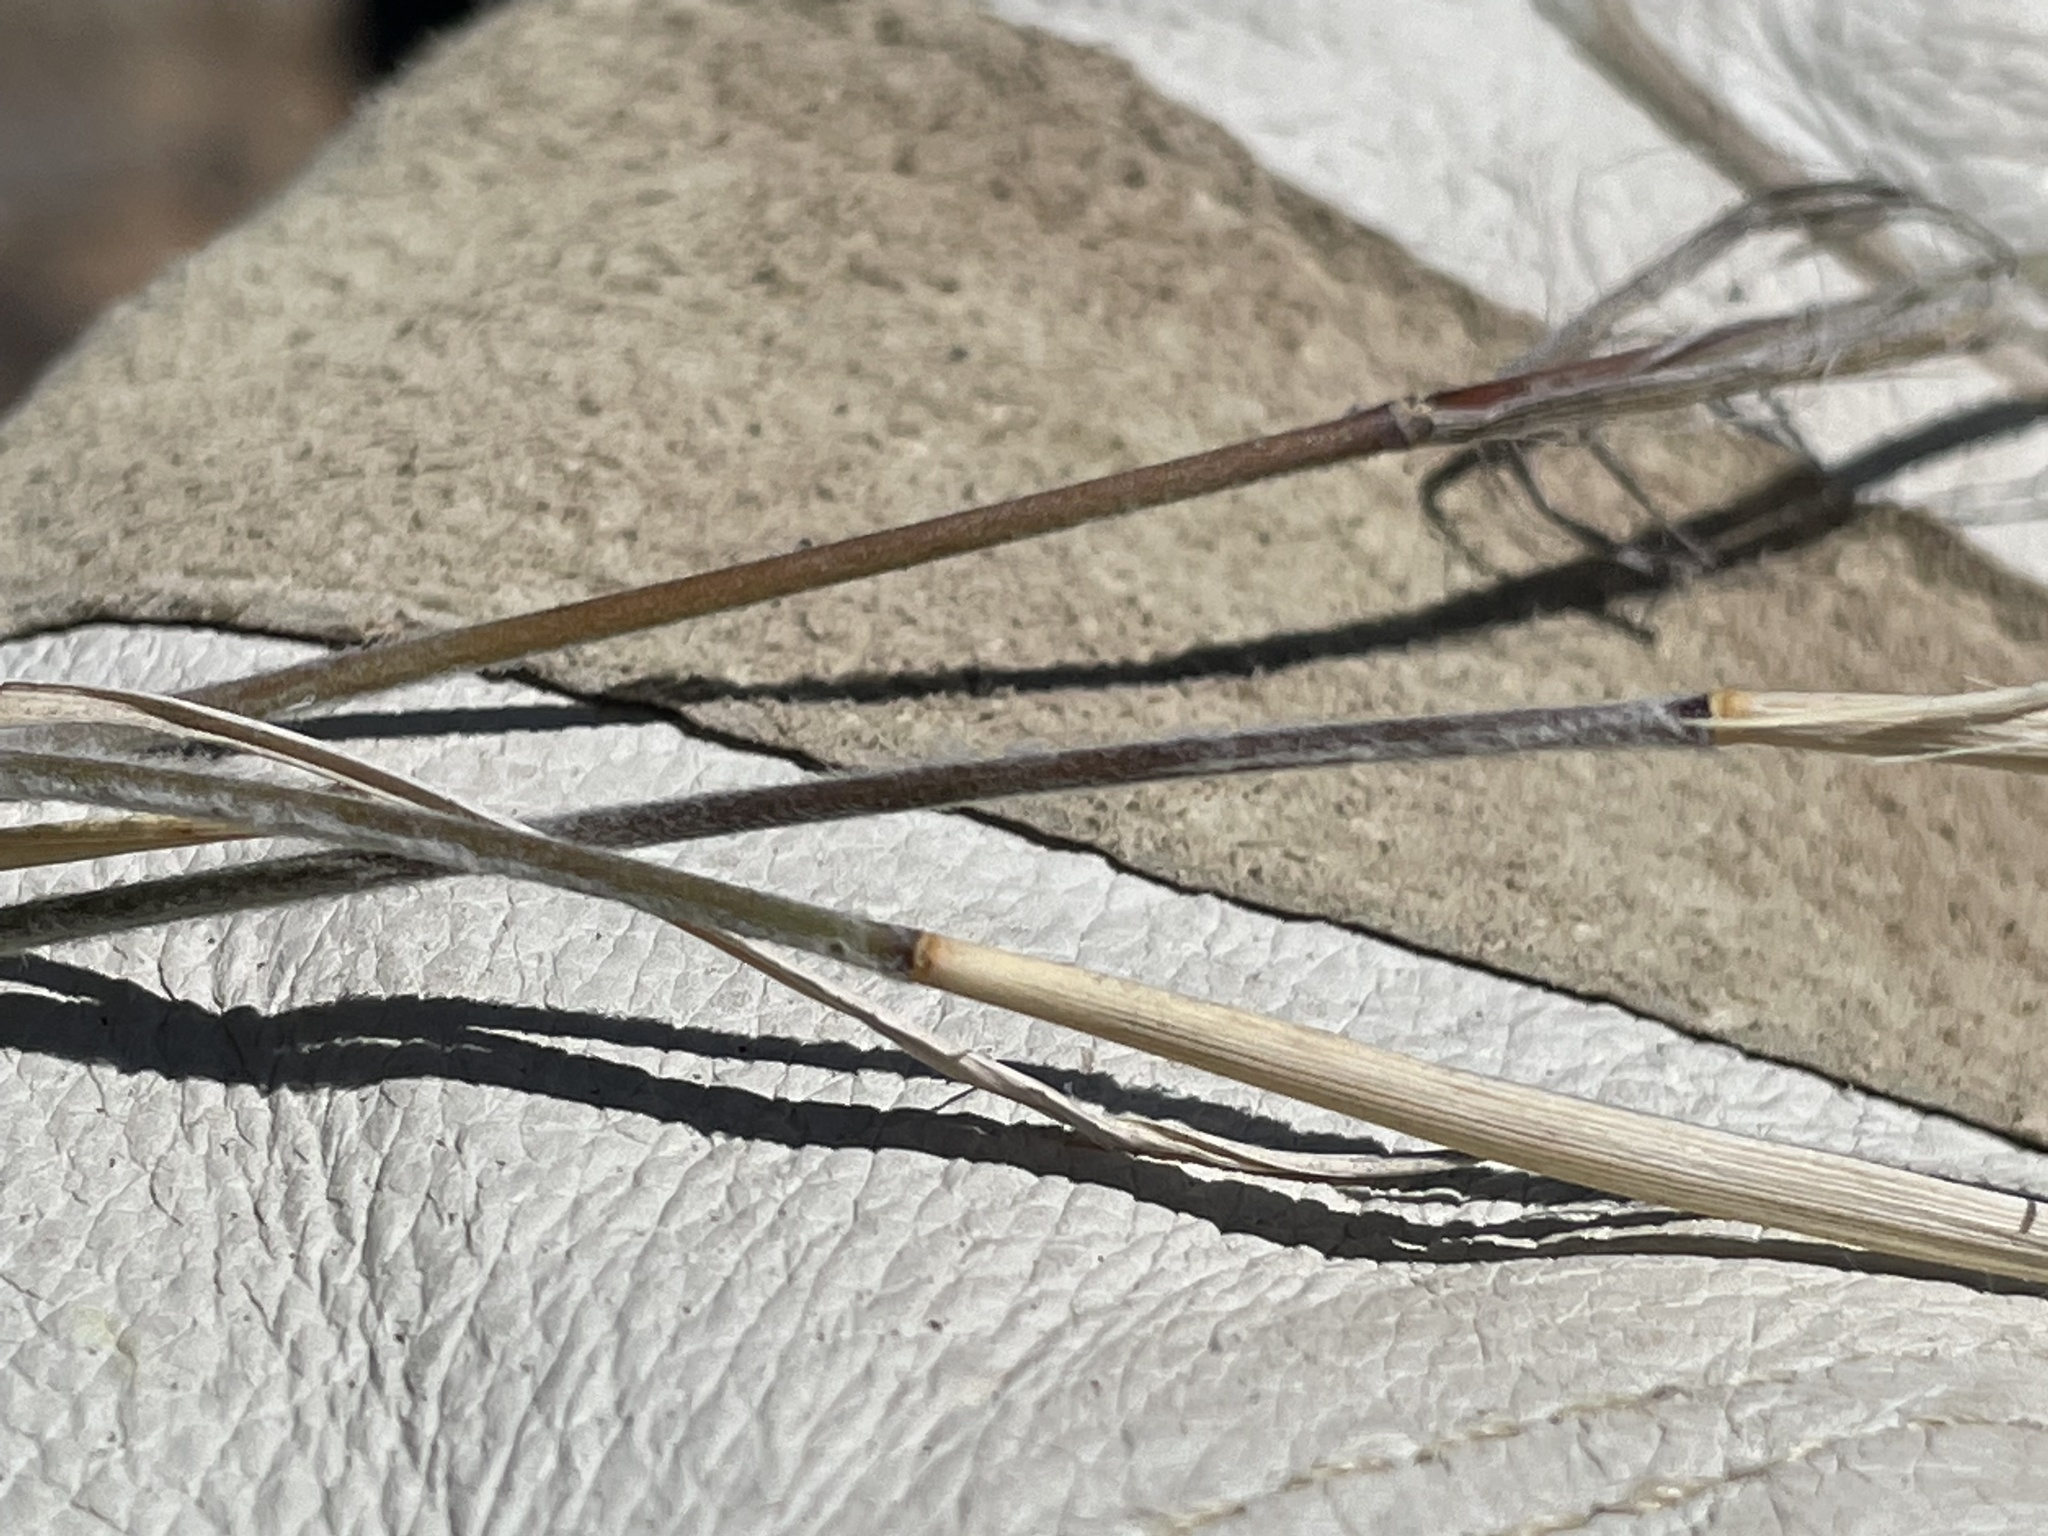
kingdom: Plantae
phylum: Tracheophyta
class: Liliopsida
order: Poales
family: Poaceae
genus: Bouteloua
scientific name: Bouteloua eriopoda
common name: Woolly foot grama
